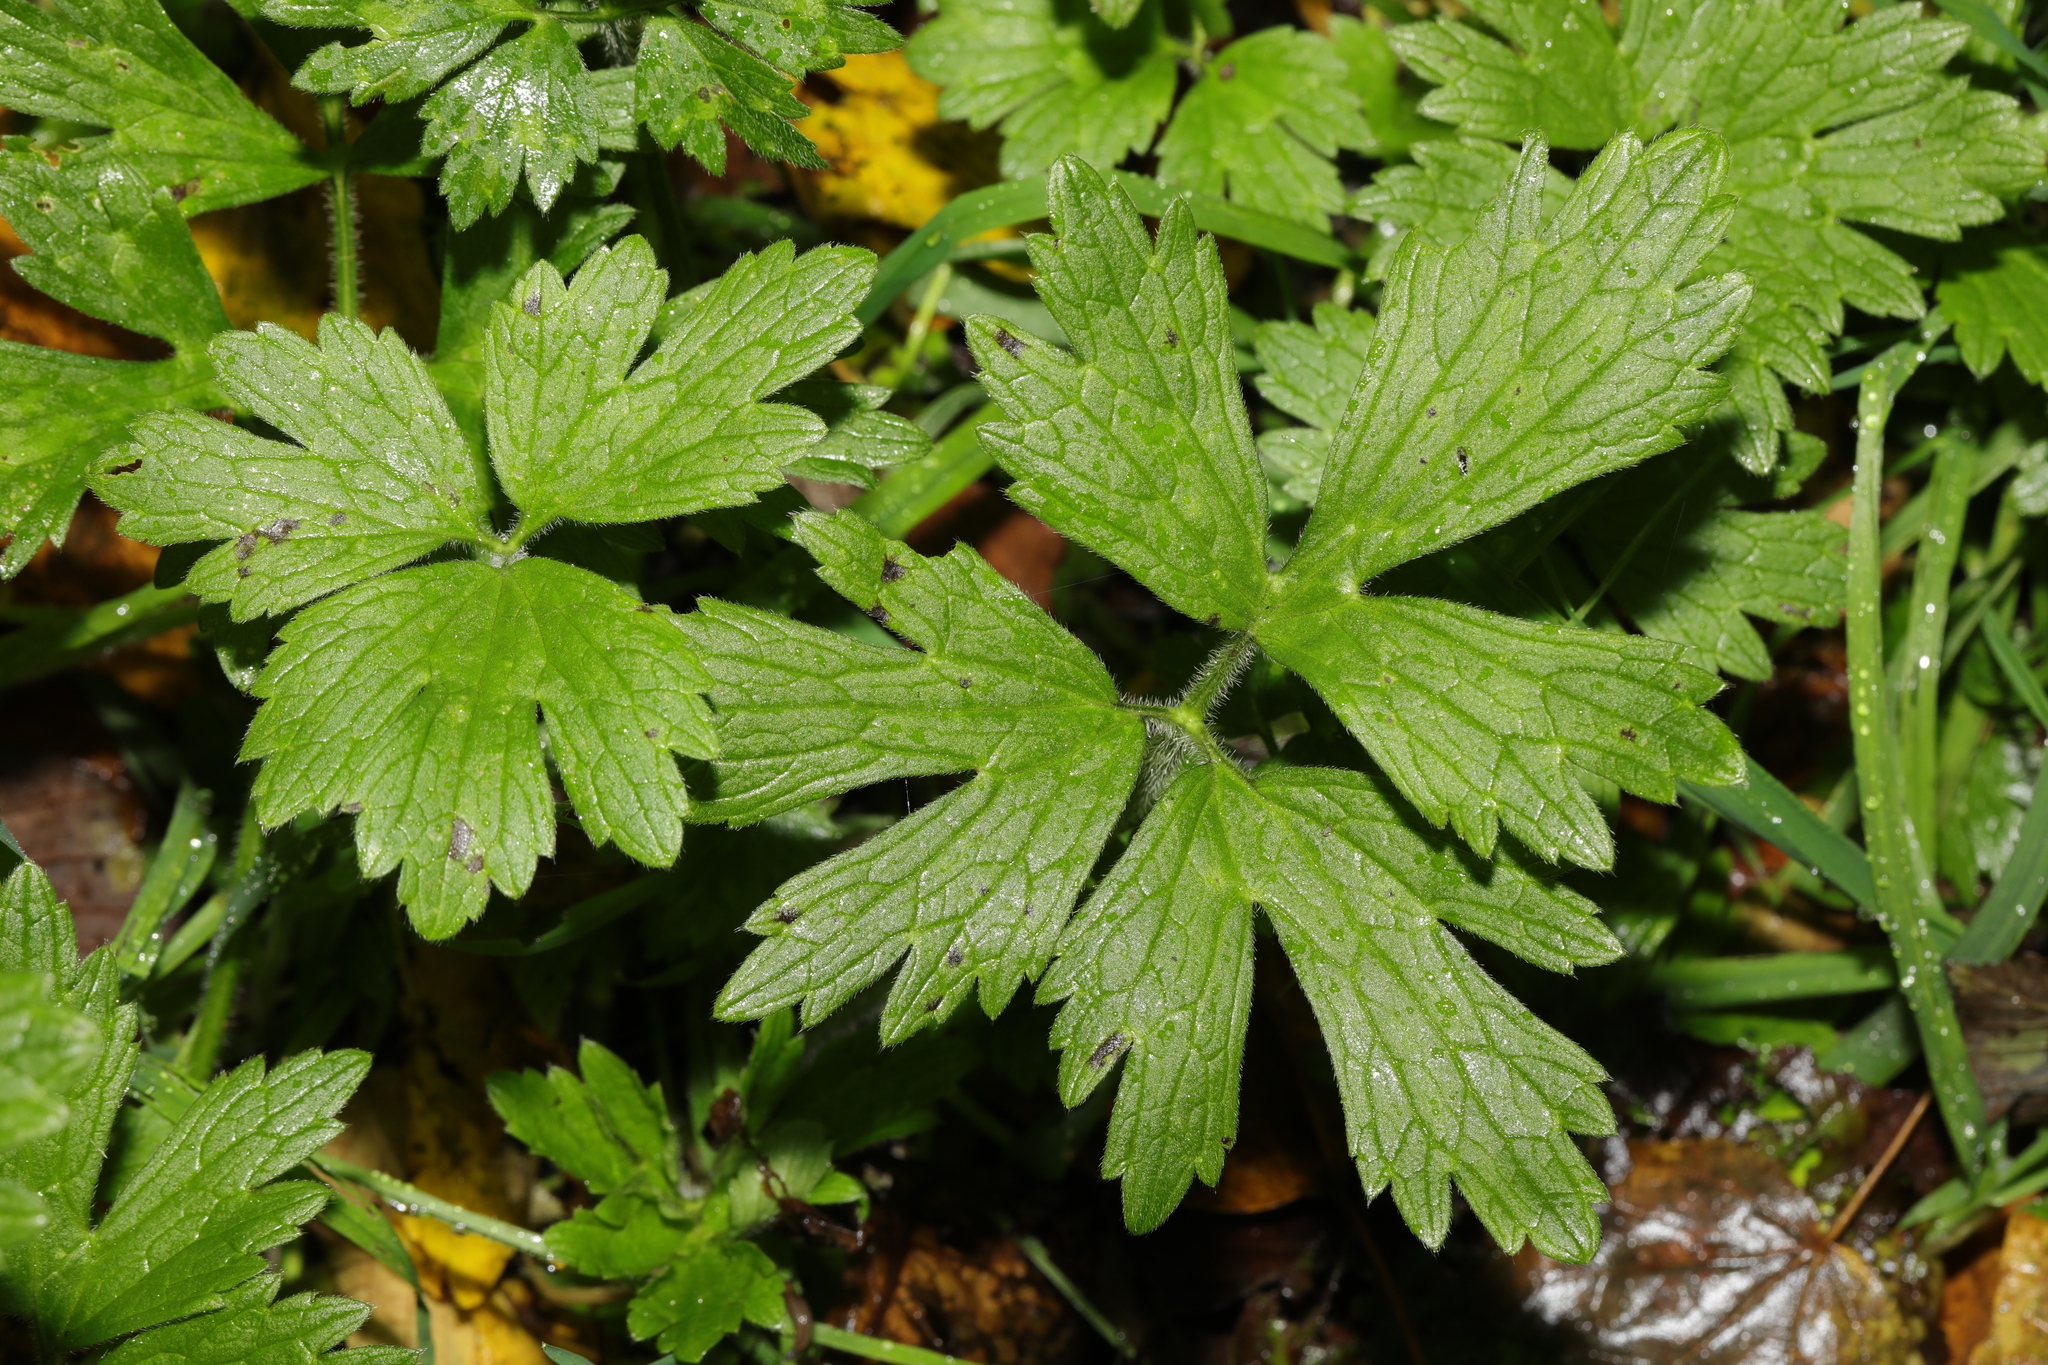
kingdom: Plantae
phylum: Tracheophyta
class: Magnoliopsida
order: Ranunculales
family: Ranunculaceae
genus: Ranunculus
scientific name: Ranunculus repens
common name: Creeping buttercup
